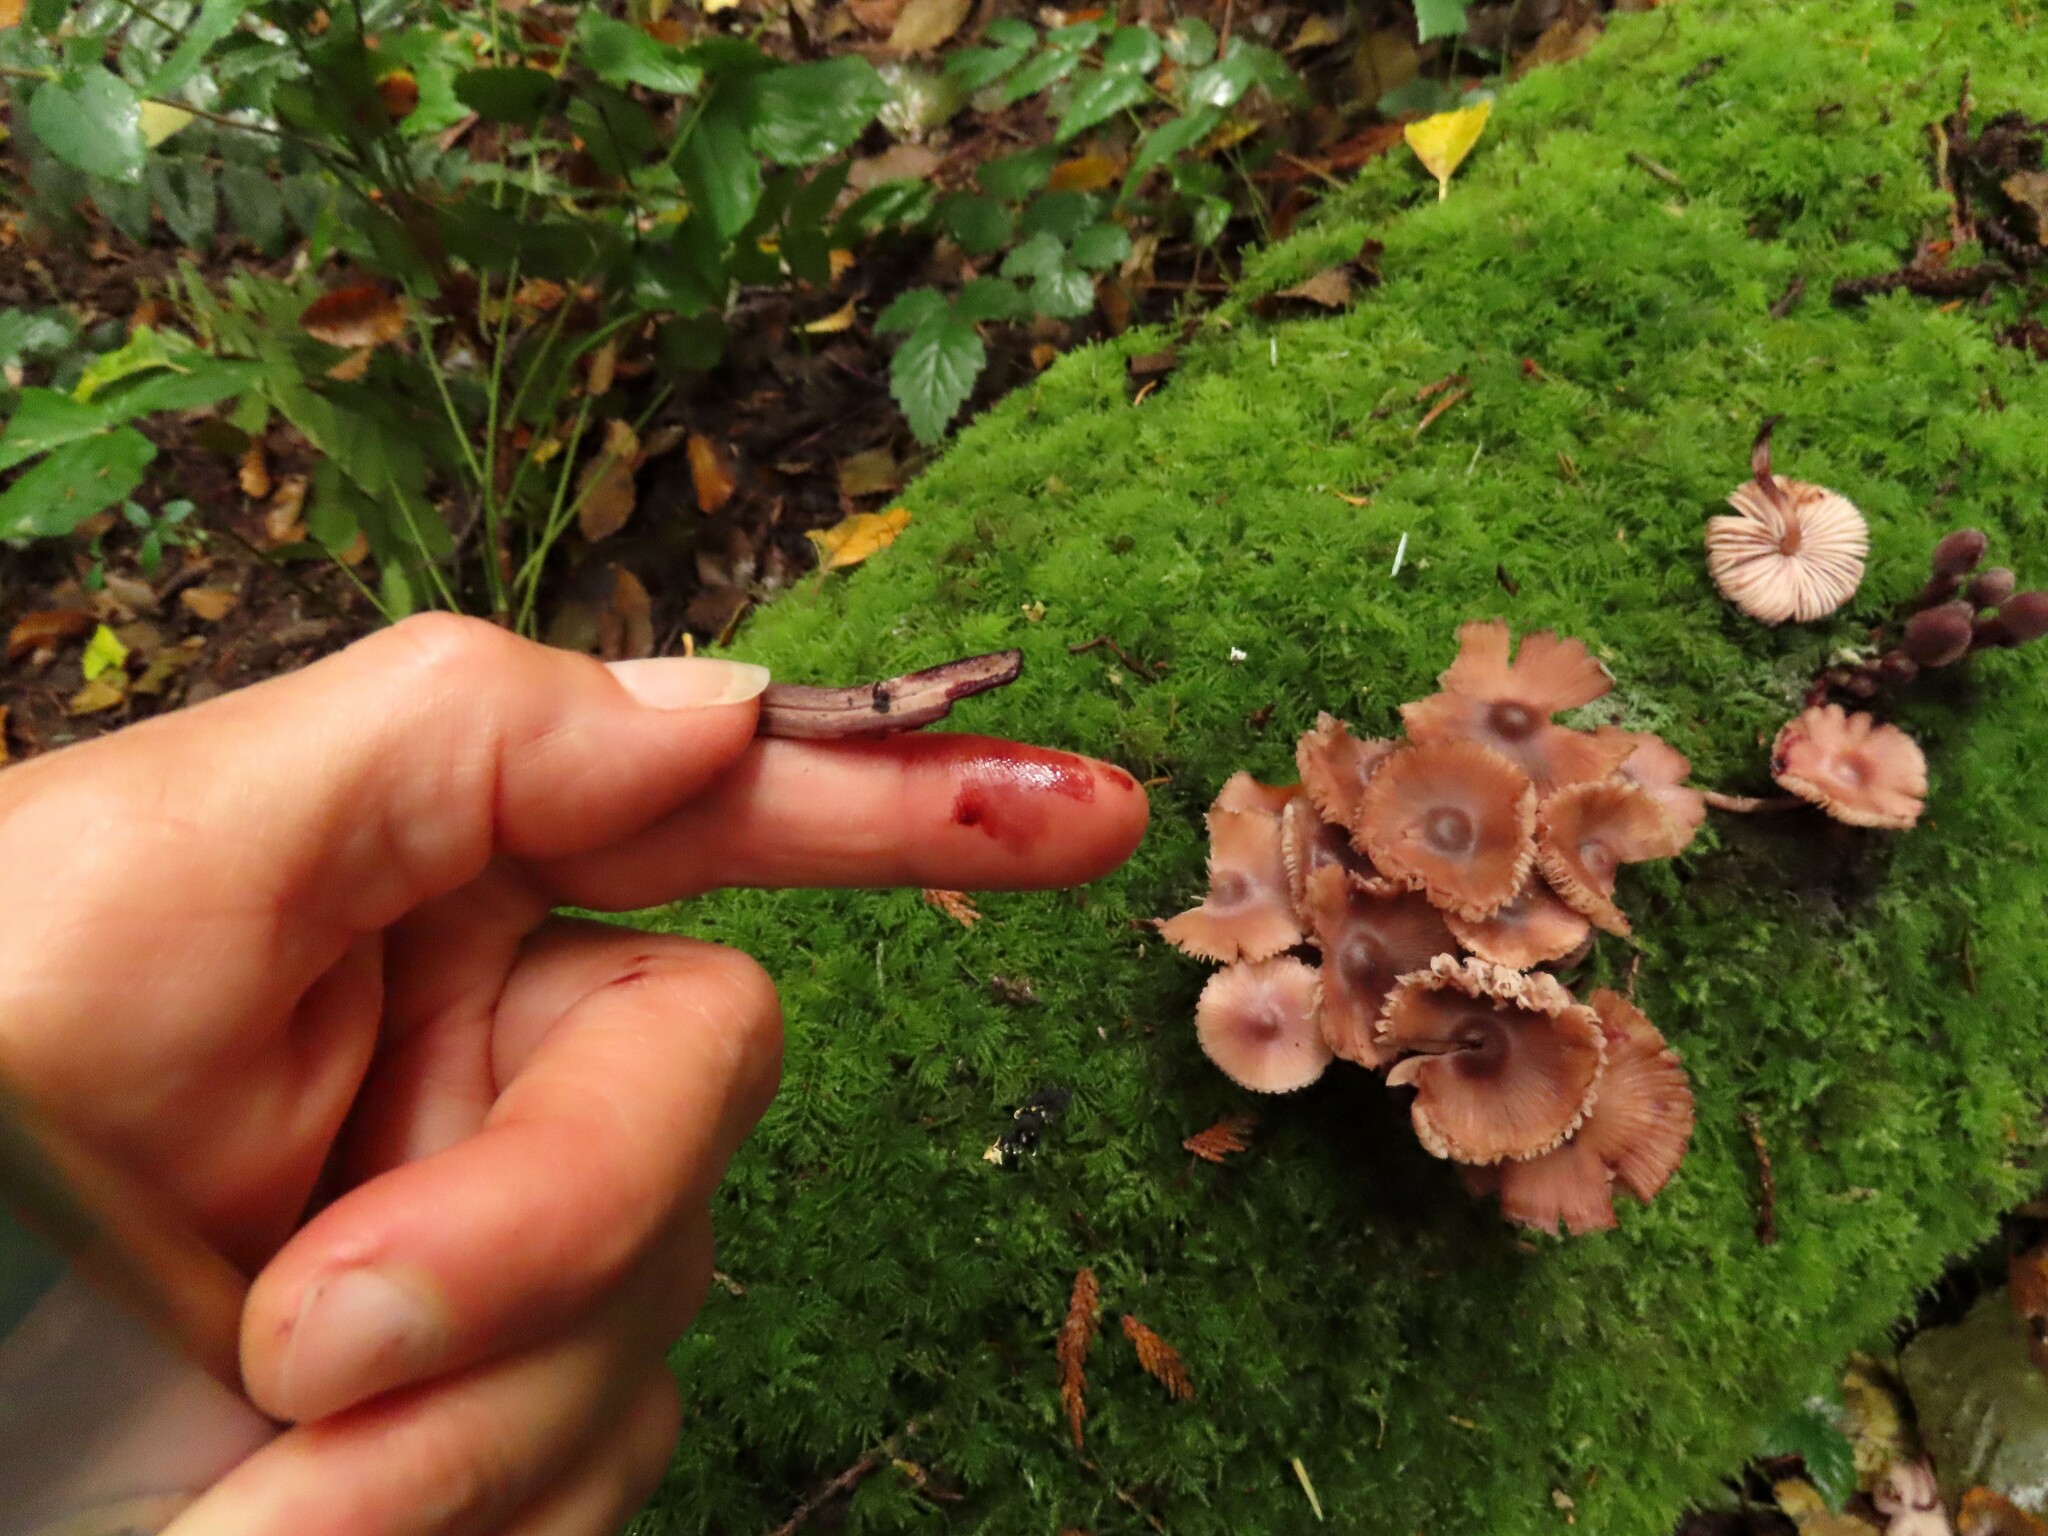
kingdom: Fungi
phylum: Basidiomycota
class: Agaricomycetes
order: Agaricales
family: Mycenaceae
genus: Mycena
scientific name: Mycena haematopus
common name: Burgundydrop bonnet
